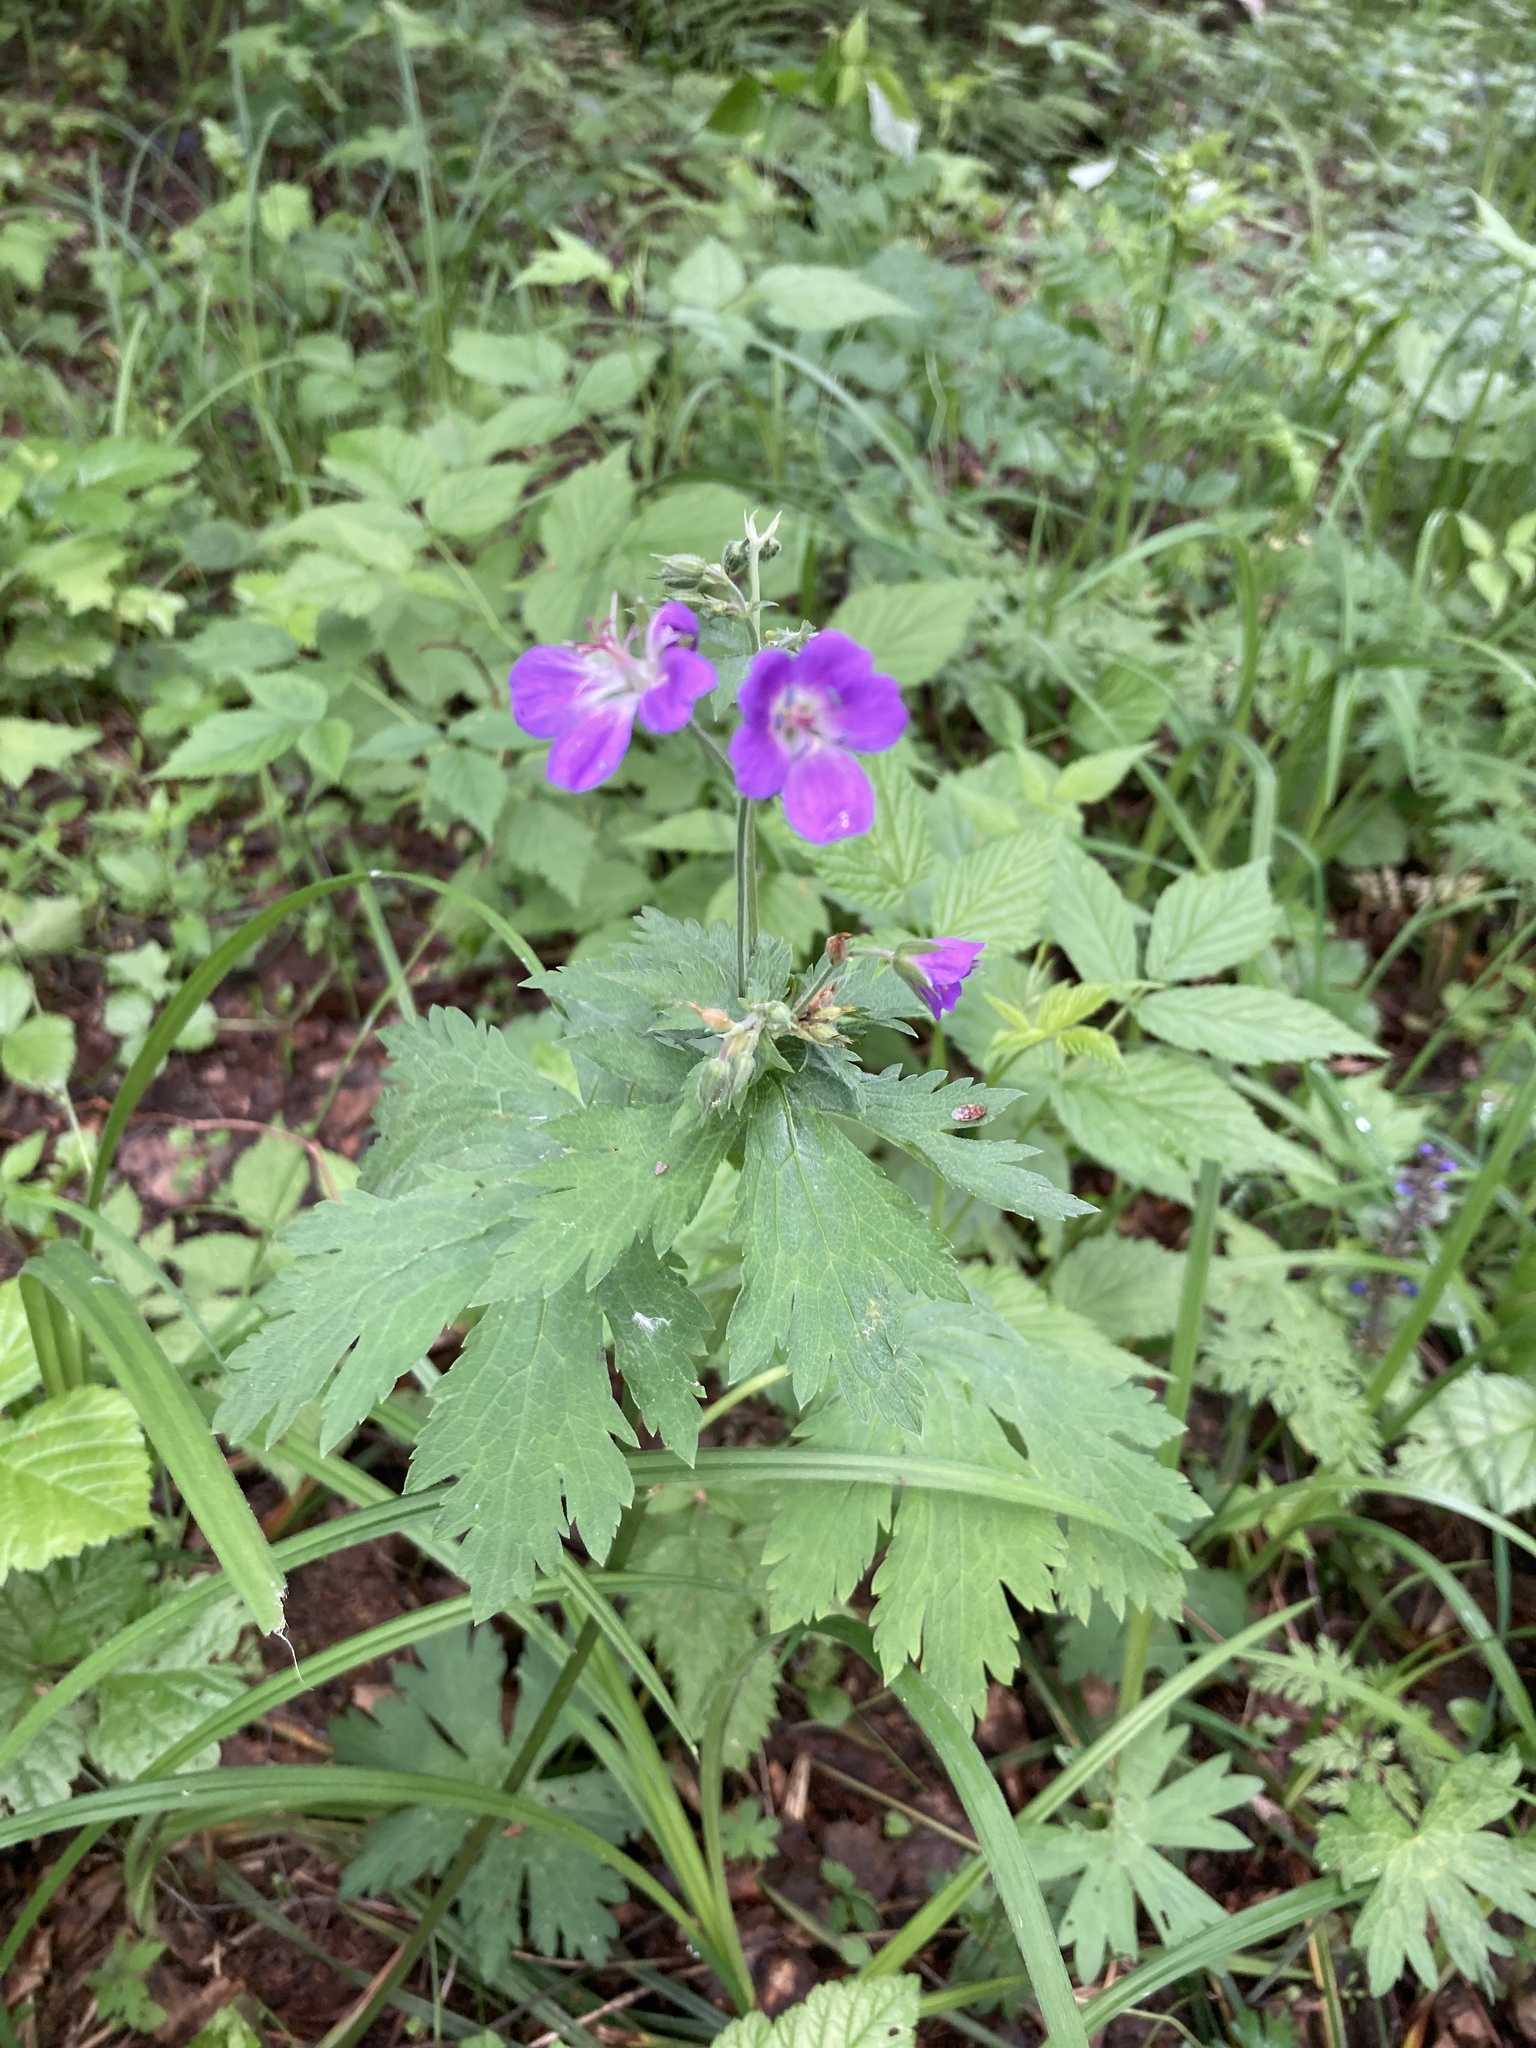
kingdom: Plantae
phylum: Tracheophyta
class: Magnoliopsida
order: Geraniales
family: Geraniaceae
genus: Geranium
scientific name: Geranium sylvaticum
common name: Wood crane's-bill
